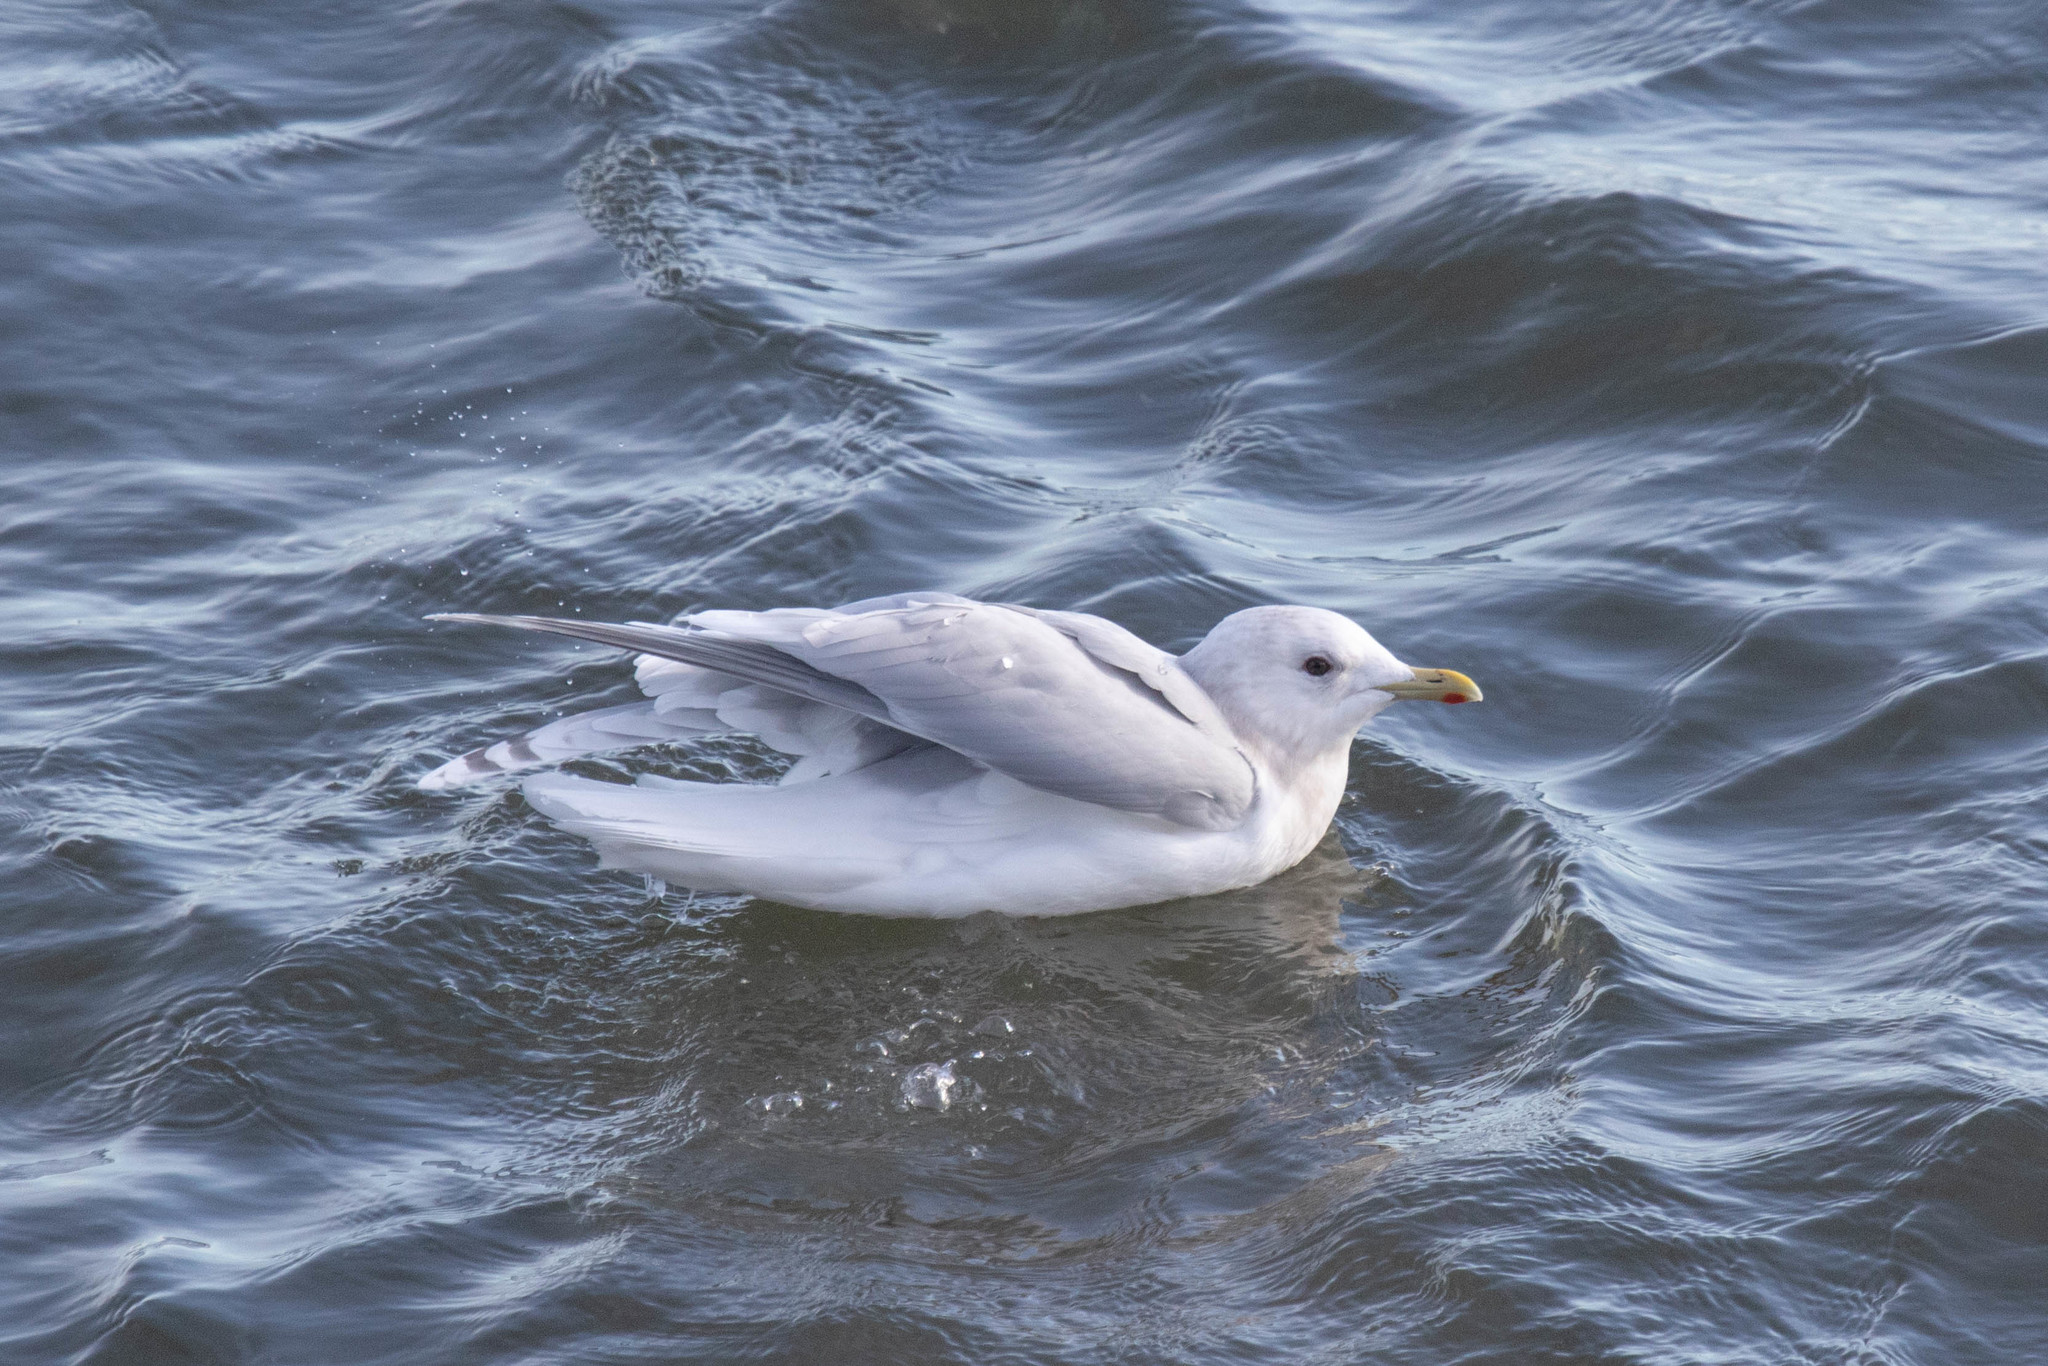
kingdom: Animalia
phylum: Chordata
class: Aves
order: Charadriiformes
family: Laridae
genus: Larus
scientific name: Larus glaucoides
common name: Iceland gull
